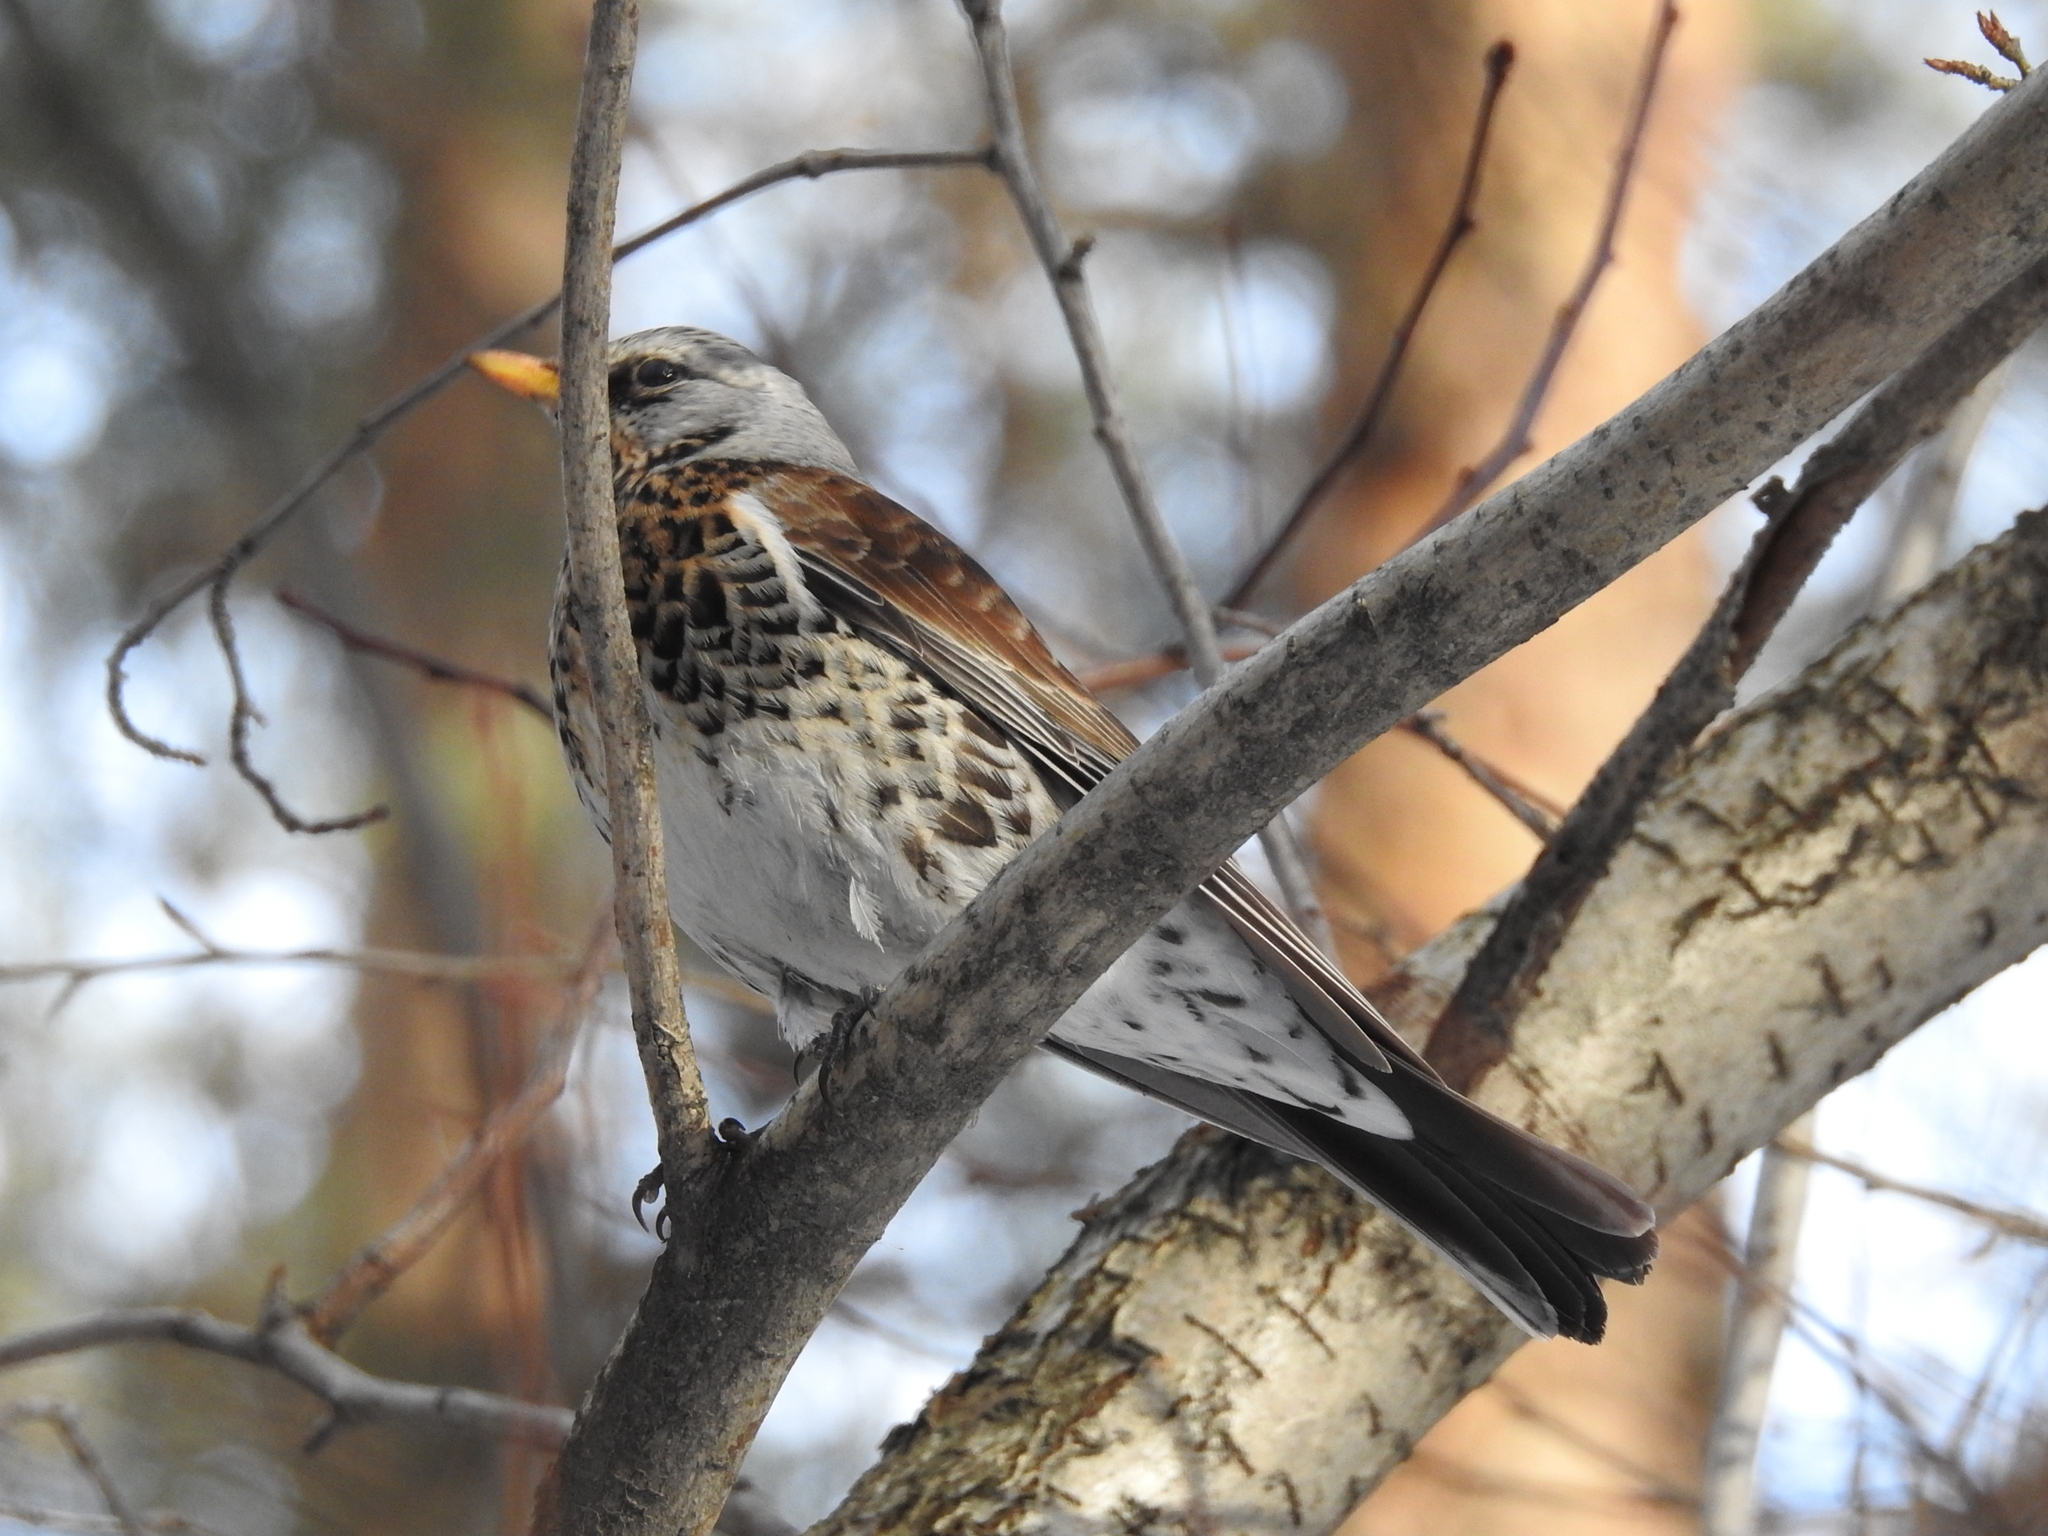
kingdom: Animalia
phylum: Chordata
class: Aves
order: Passeriformes
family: Turdidae
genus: Turdus
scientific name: Turdus pilaris
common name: Fieldfare
